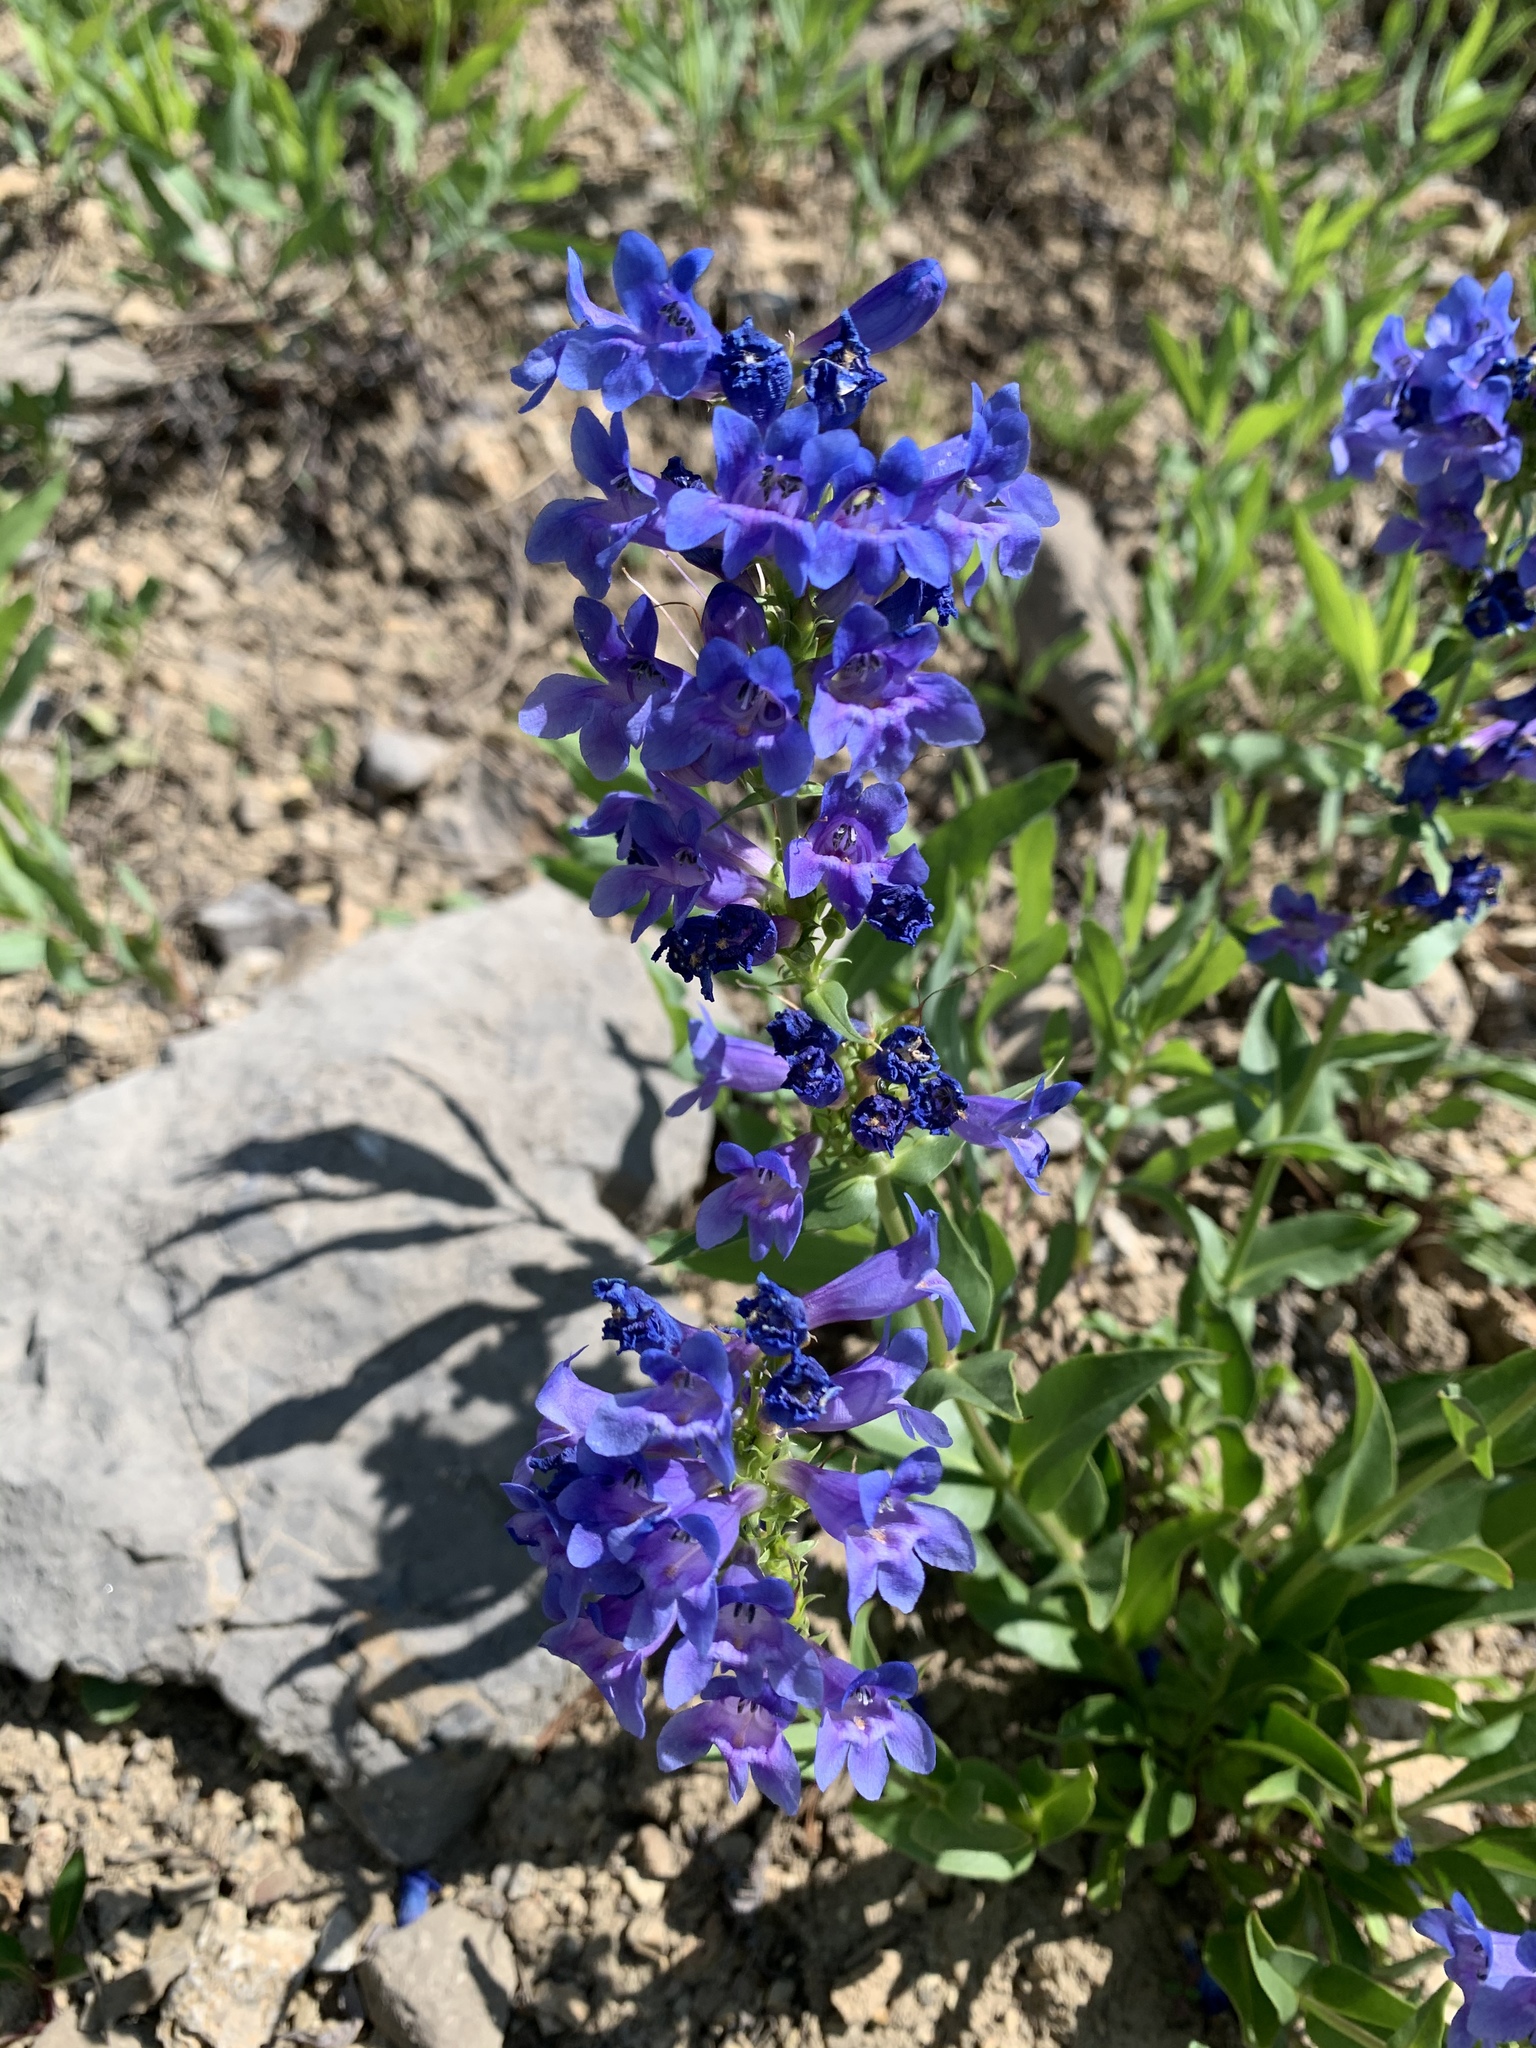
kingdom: Plantae
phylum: Tracheophyta
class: Magnoliopsida
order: Lamiales
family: Plantaginaceae
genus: Penstemon
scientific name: Penstemon cyananthus
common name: Wasatch penstemon
